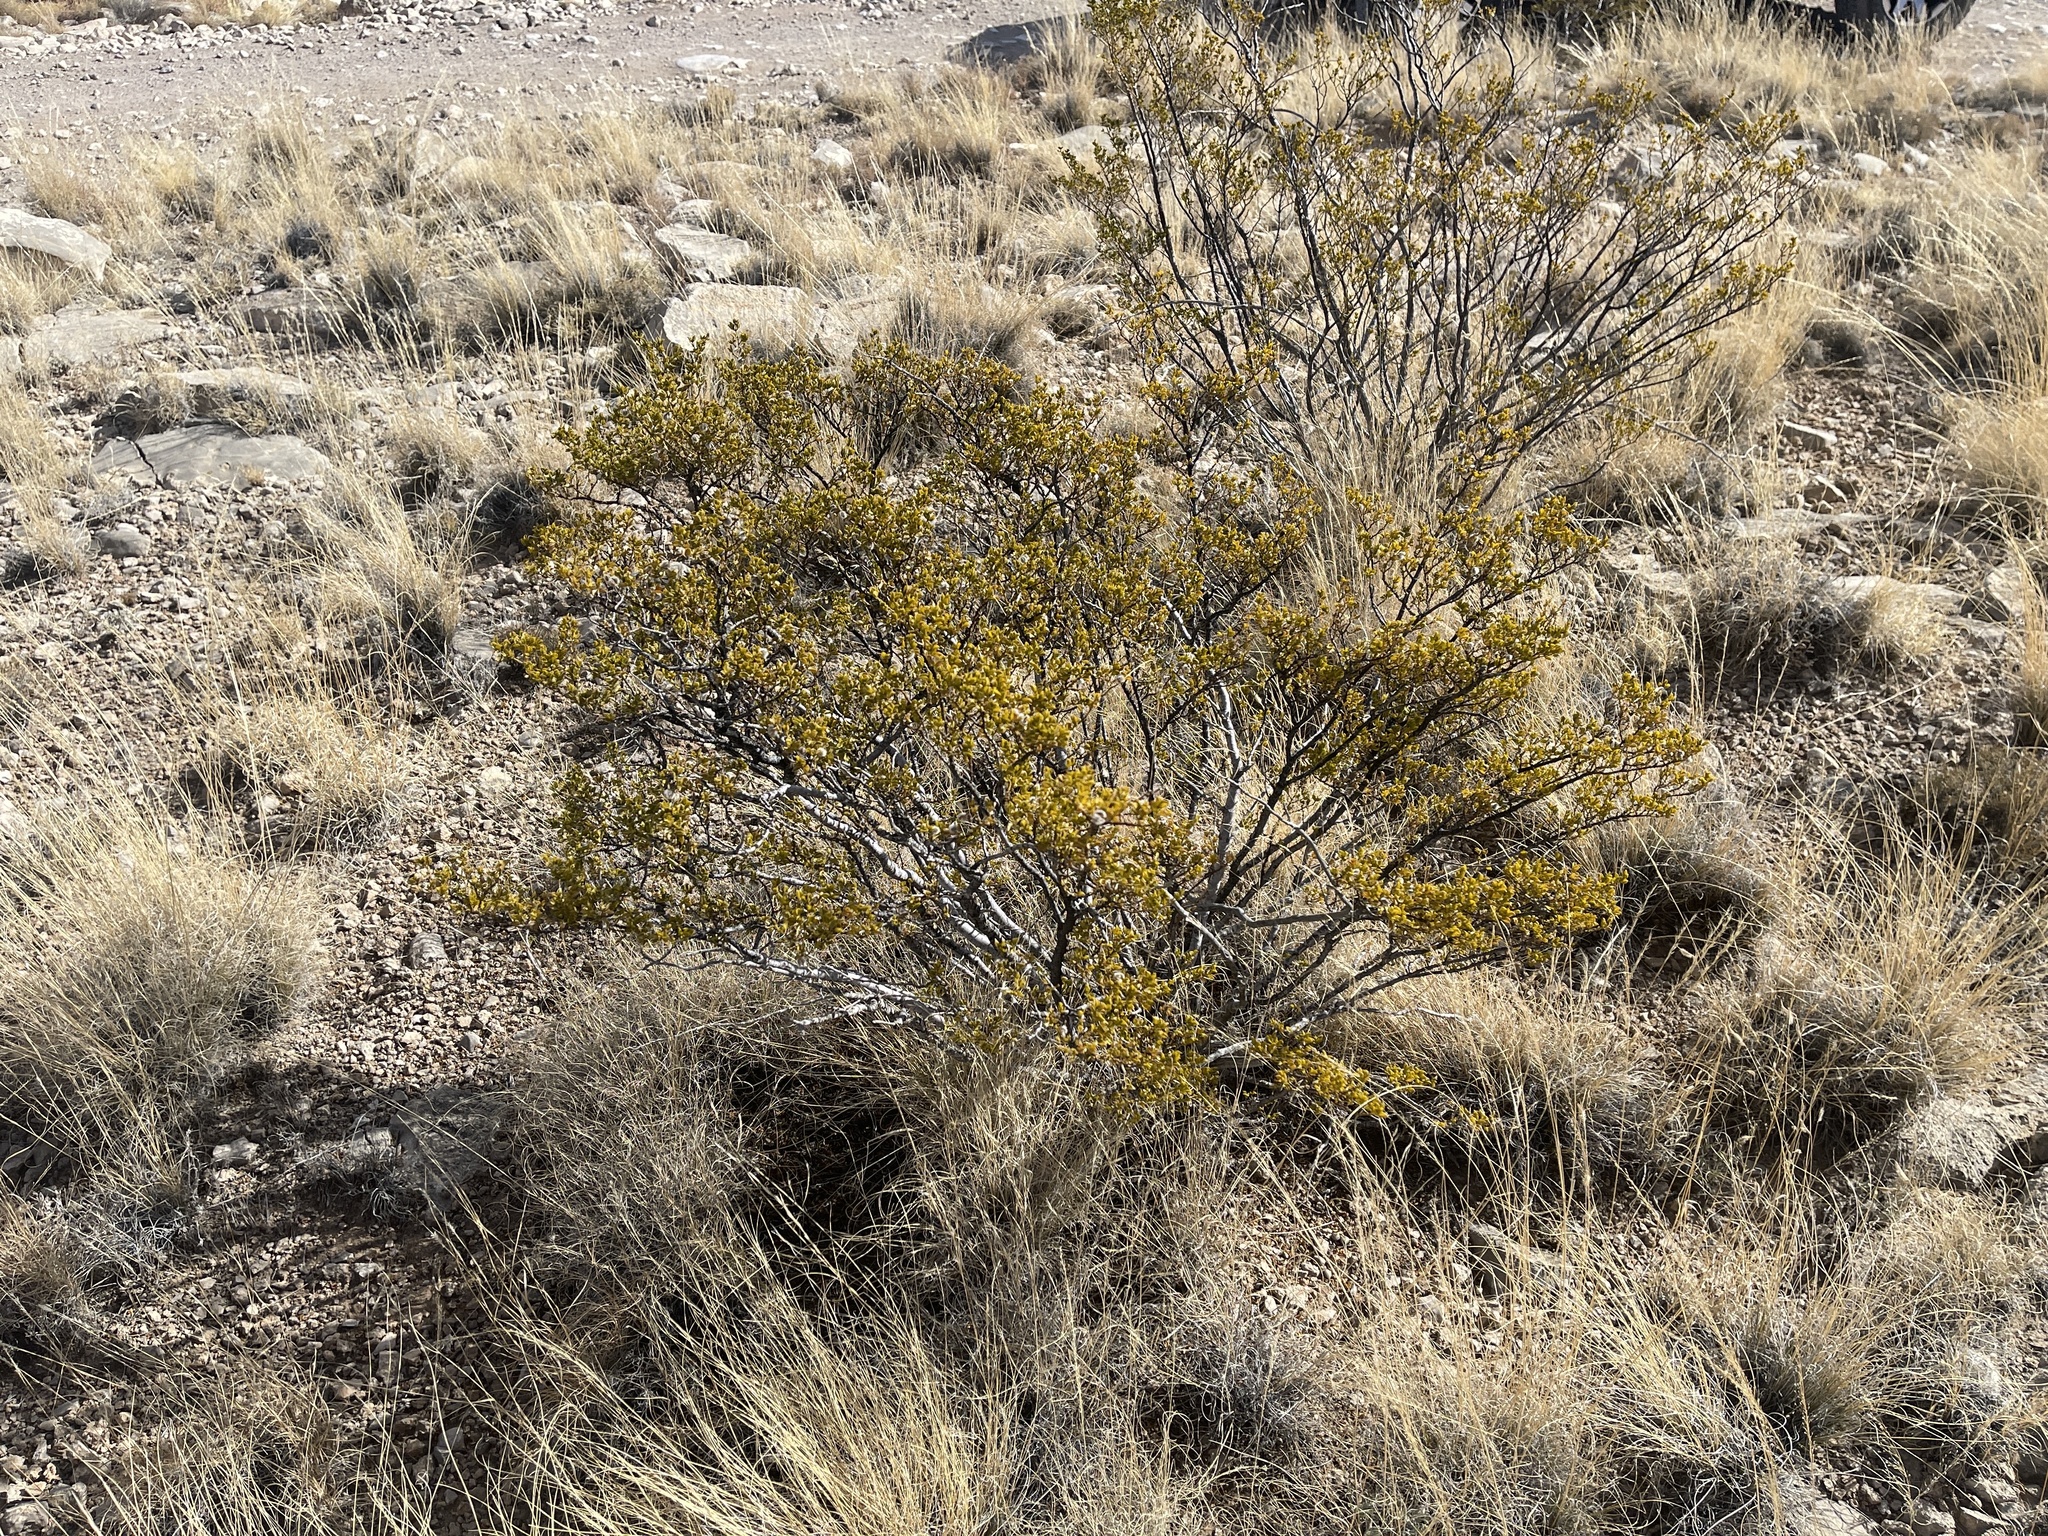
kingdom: Plantae
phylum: Tracheophyta
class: Magnoliopsida
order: Zygophyllales
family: Zygophyllaceae
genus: Larrea
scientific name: Larrea tridentata
